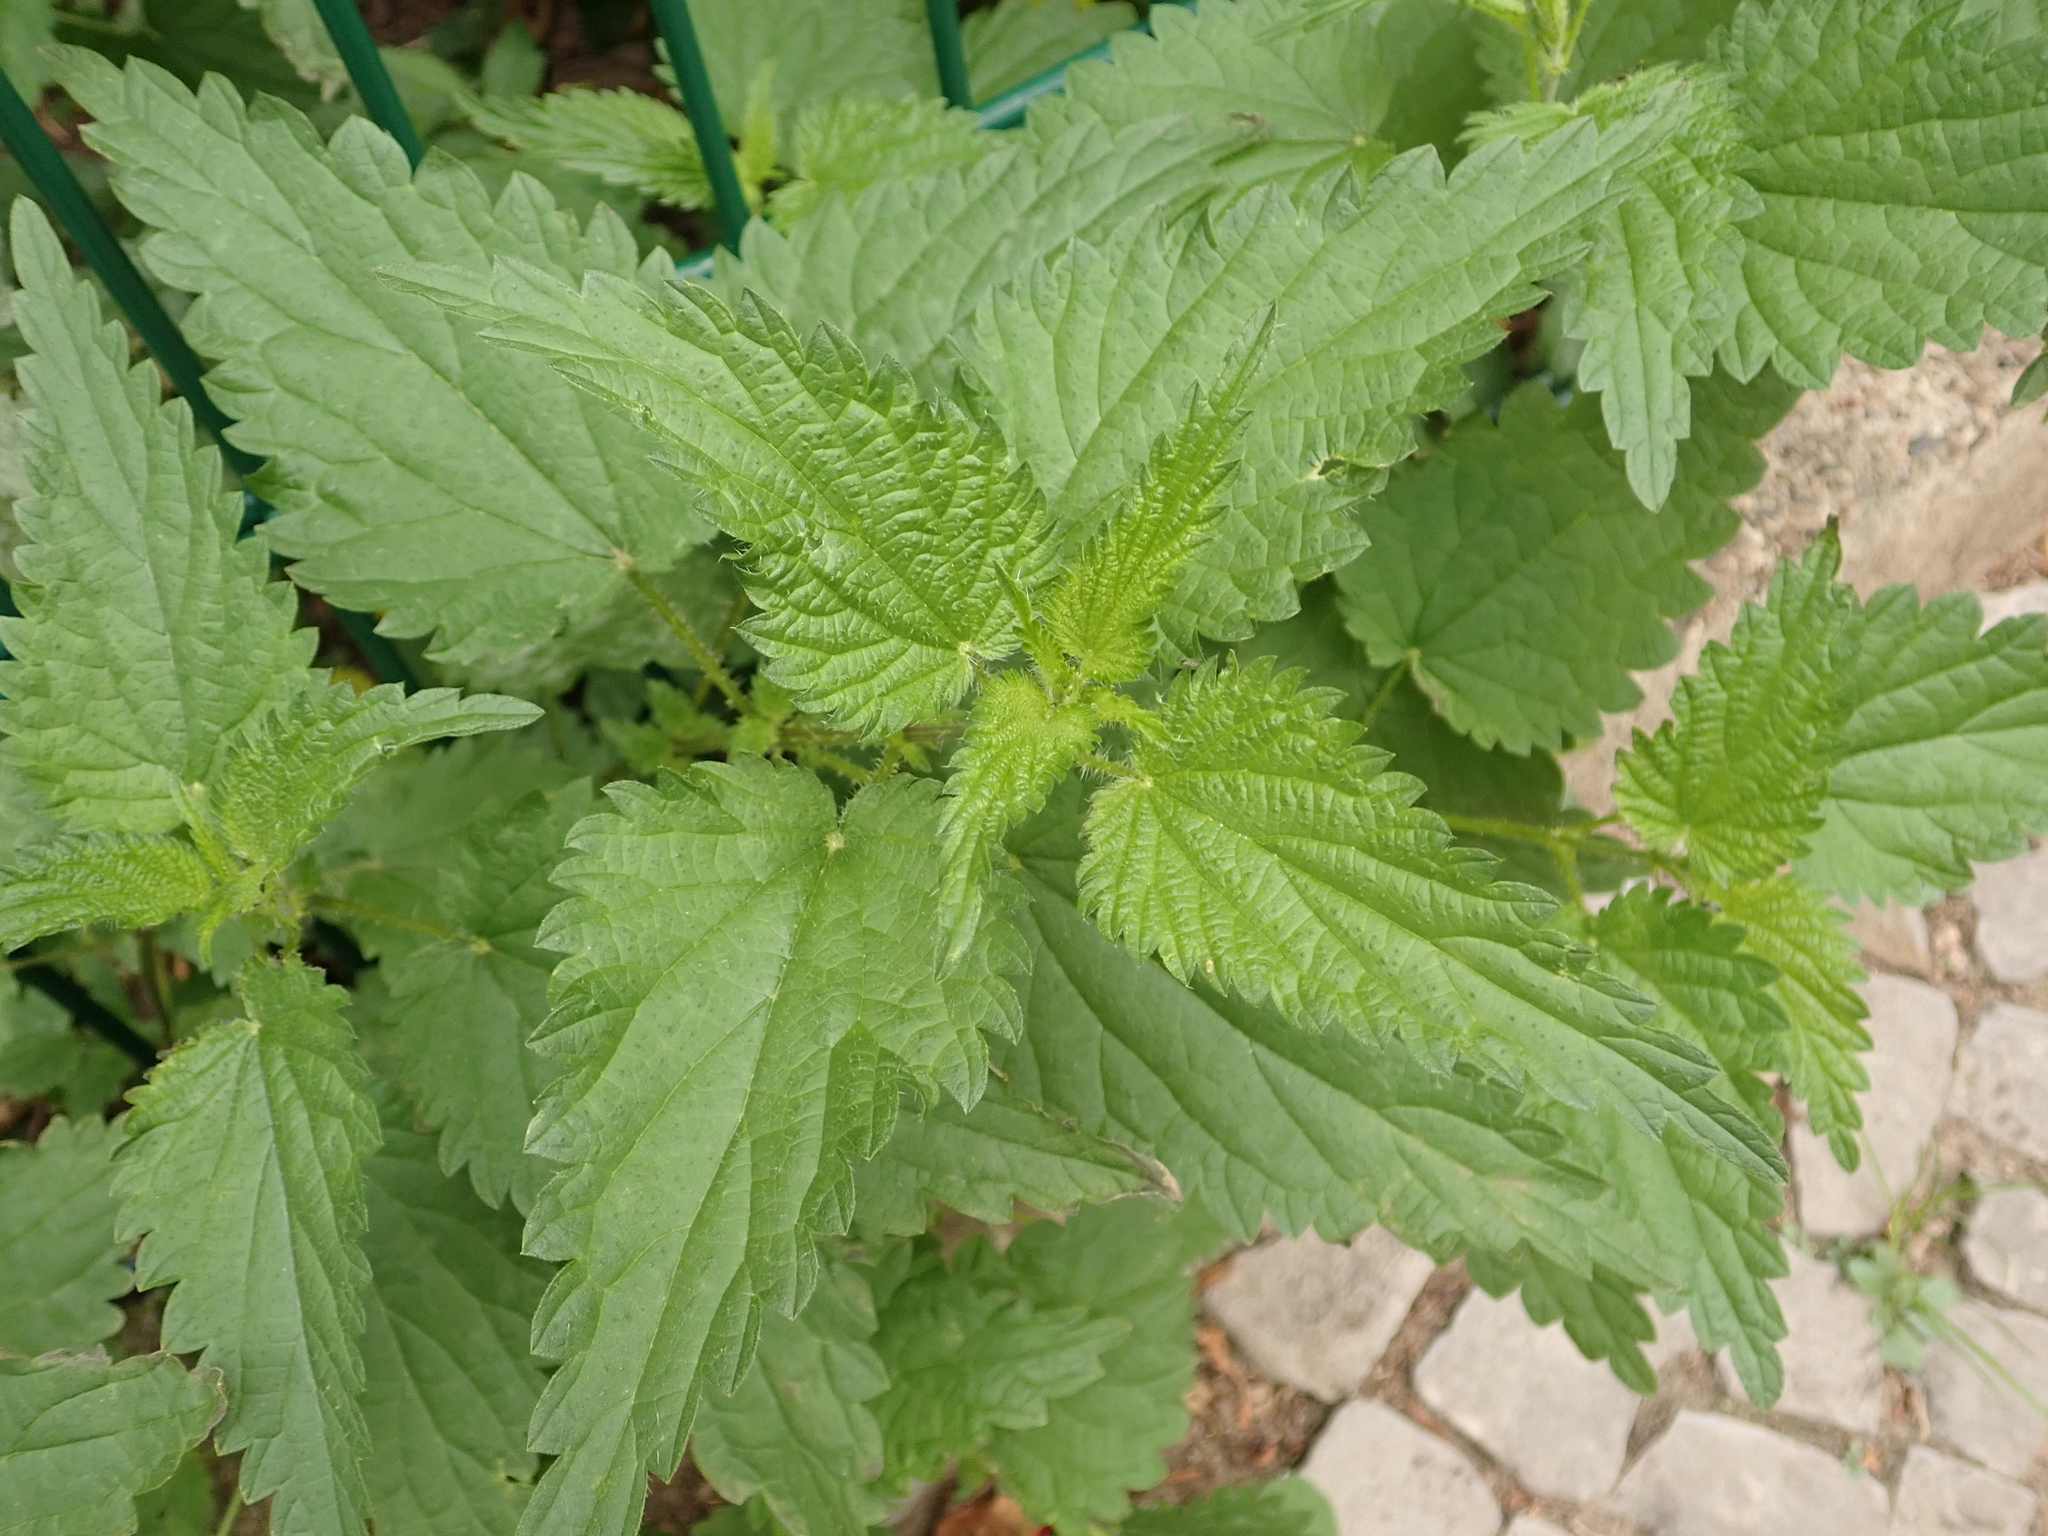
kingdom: Plantae
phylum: Tracheophyta
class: Magnoliopsida
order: Rosales
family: Urticaceae
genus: Urtica
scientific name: Urtica dioica
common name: Common nettle
